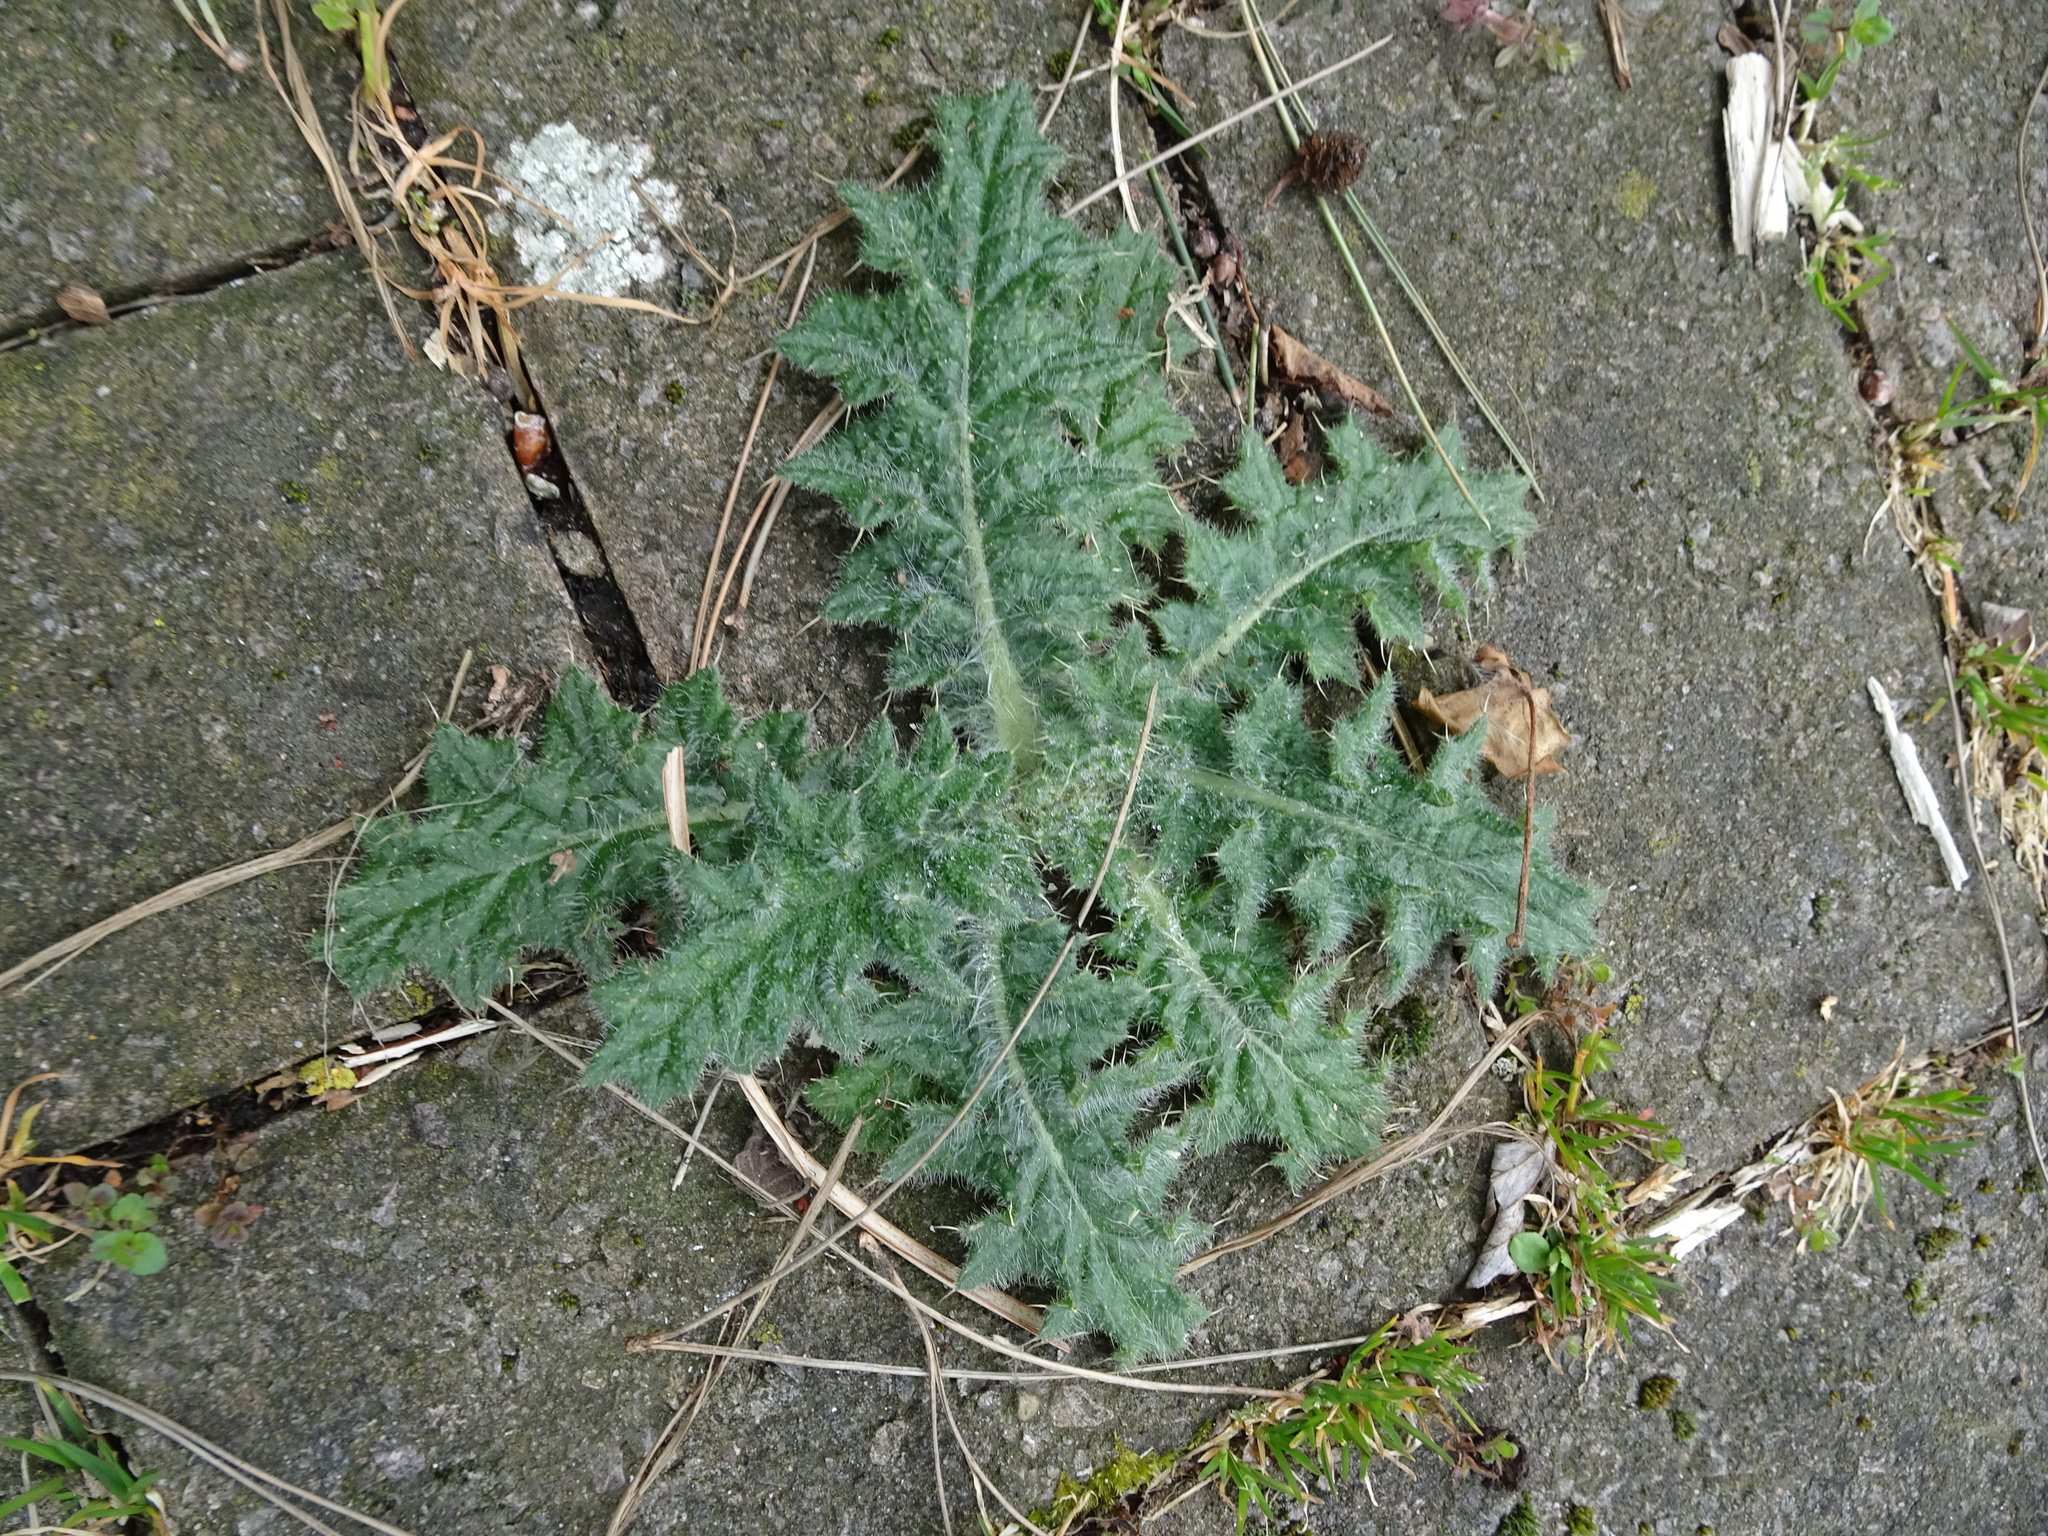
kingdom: Plantae
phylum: Tracheophyta
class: Magnoliopsida
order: Asterales
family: Asteraceae
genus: Cirsium
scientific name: Cirsium vulgare
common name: Bull thistle
